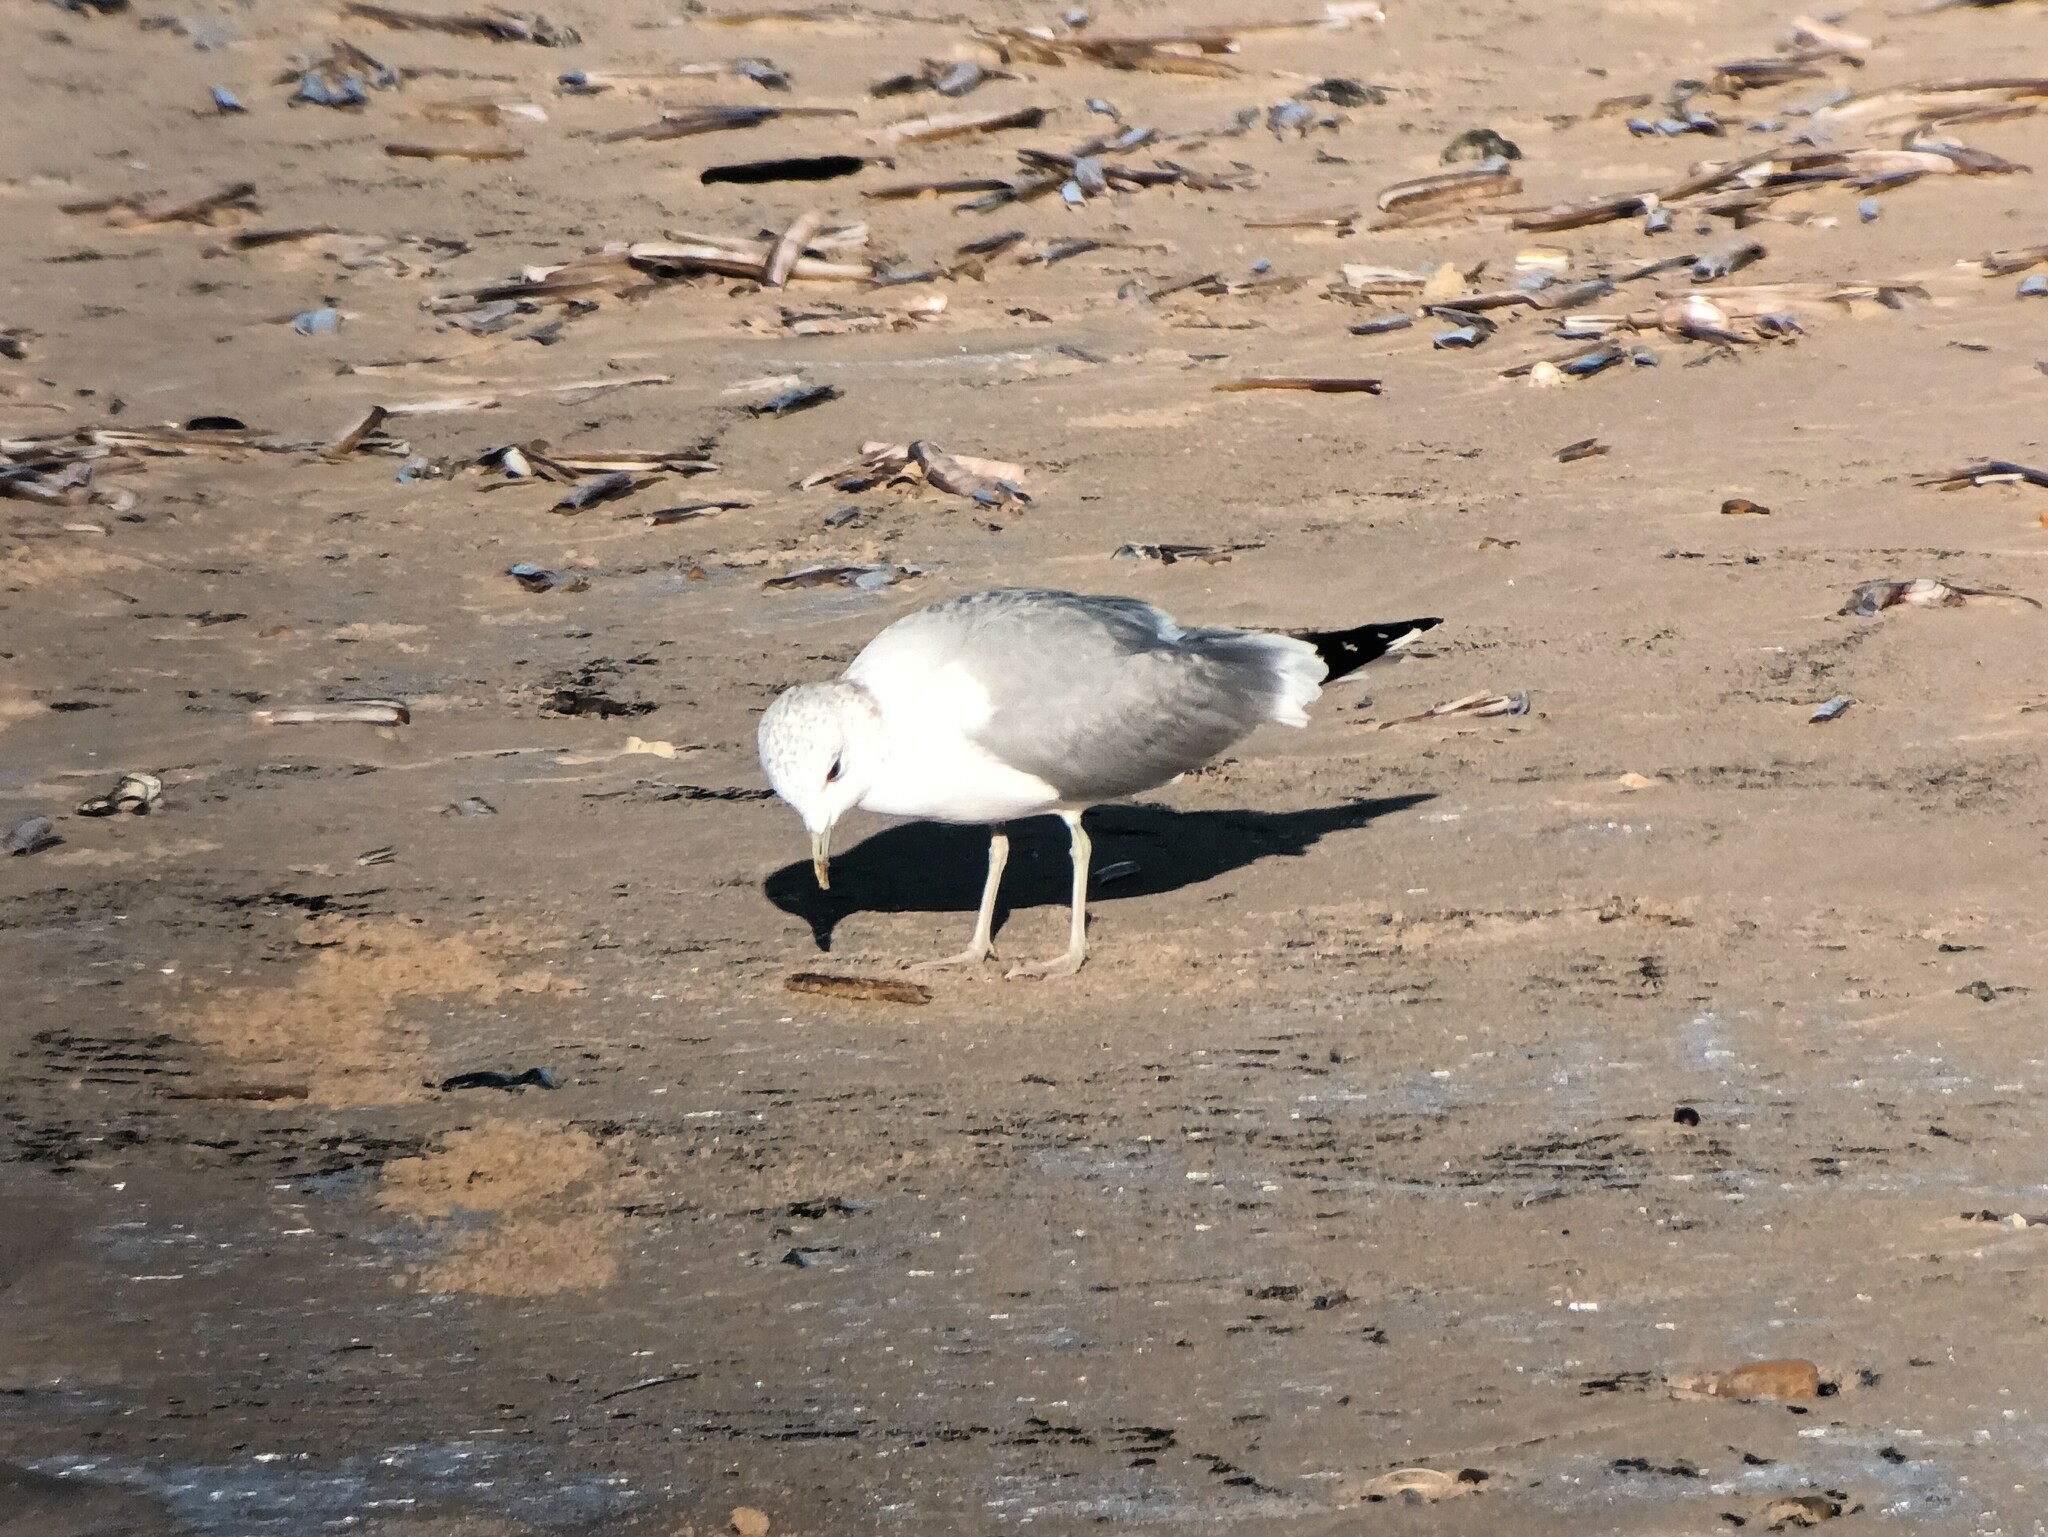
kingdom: Animalia
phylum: Chordata
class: Aves
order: Charadriiformes
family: Laridae
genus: Larus
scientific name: Larus canus
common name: Mew gull
